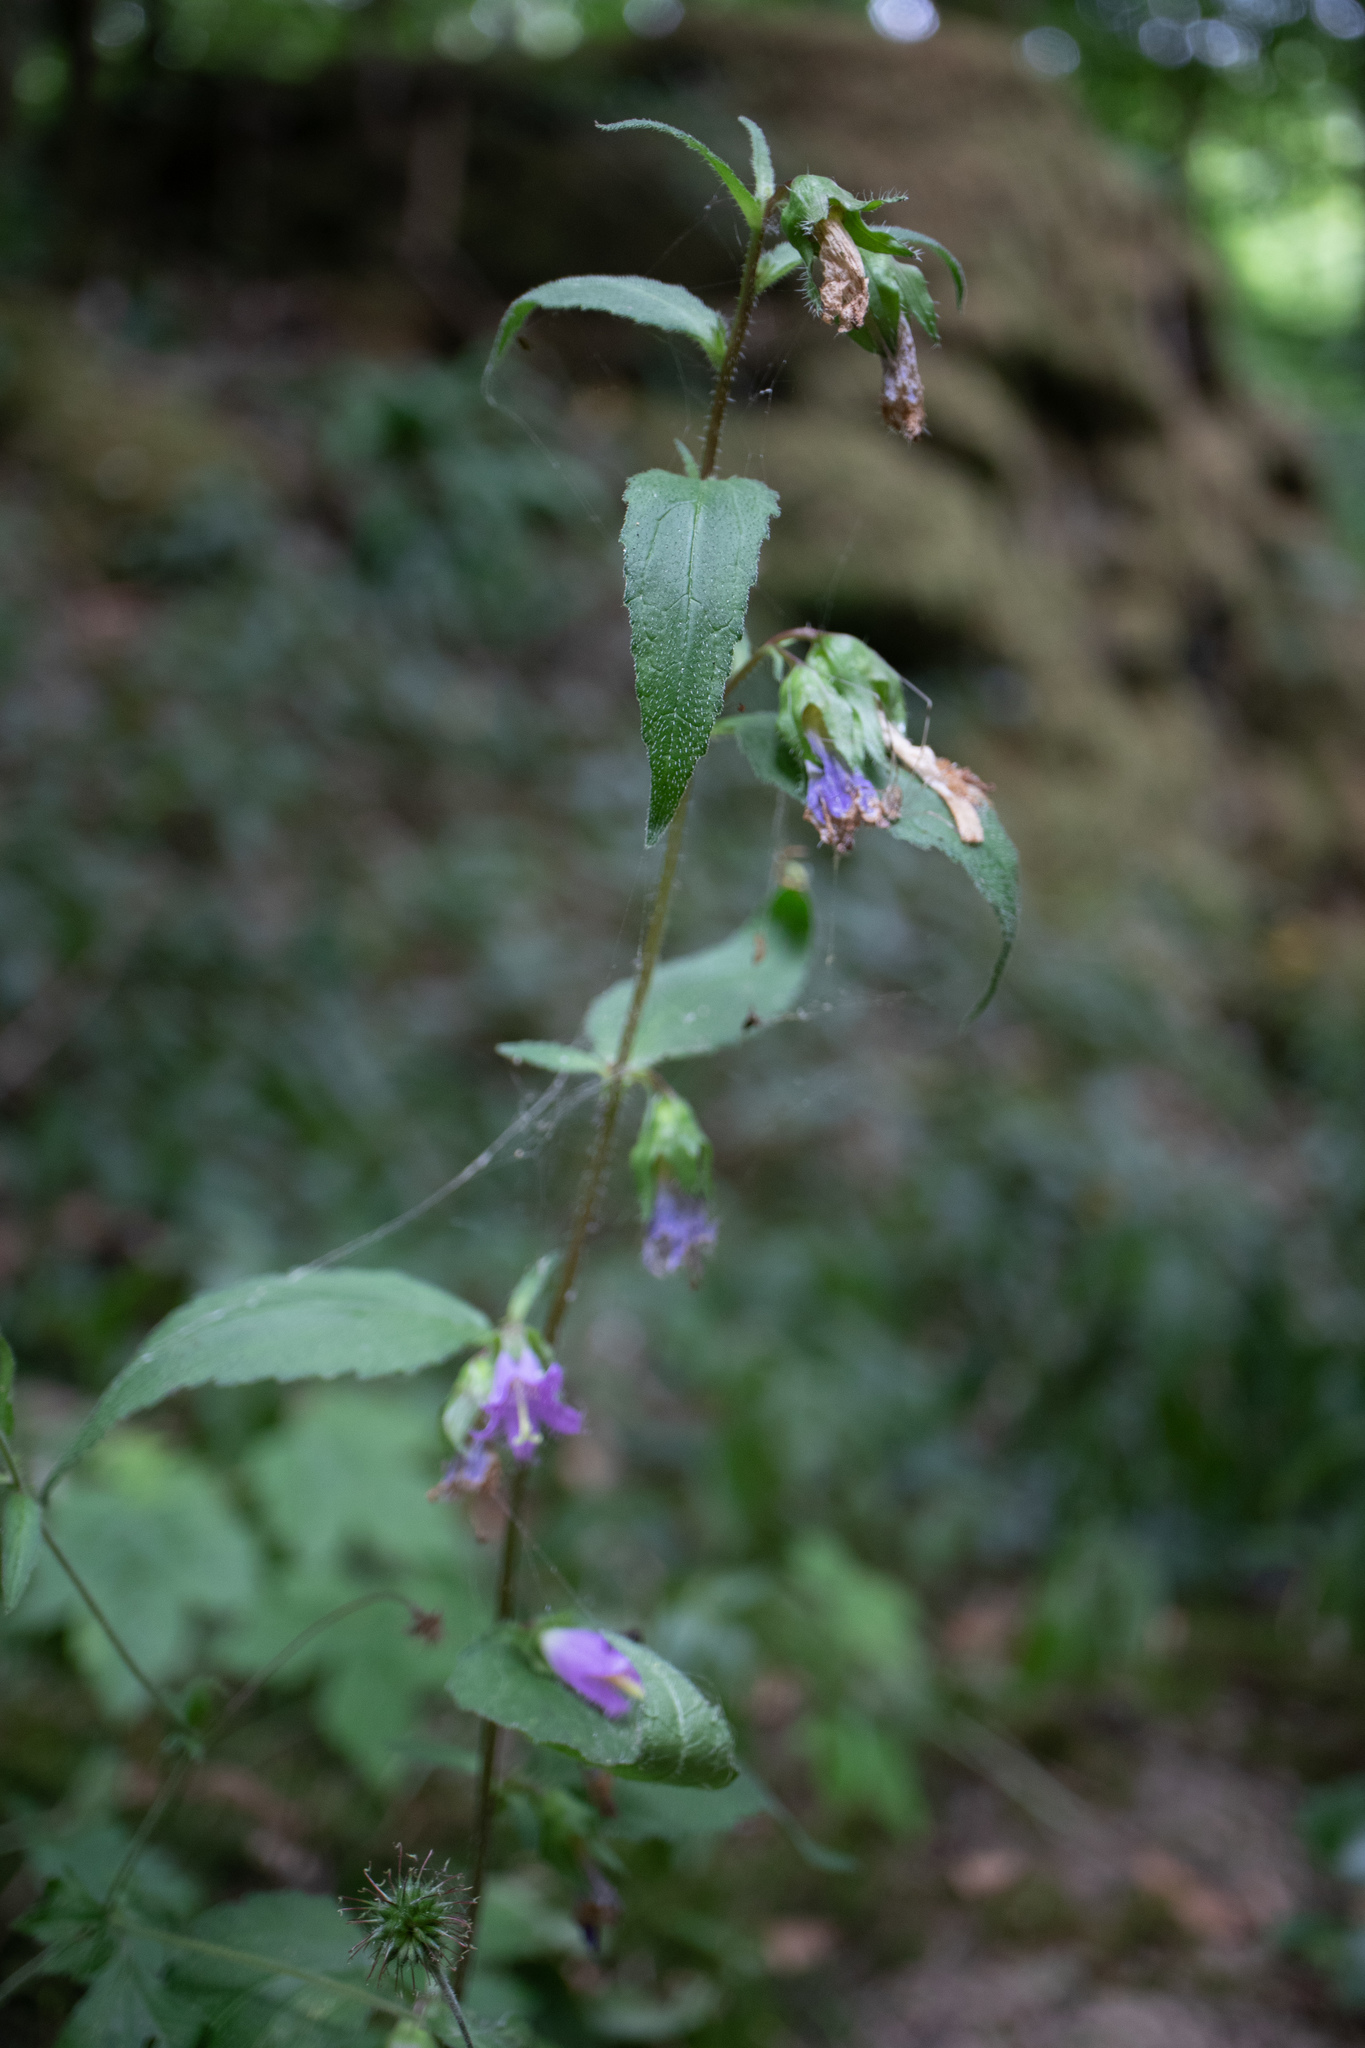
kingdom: Plantae
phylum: Tracheophyta
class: Magnoliopsida
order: Asterales
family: Campanulaceae
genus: Campanula
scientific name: Campanula trachelium
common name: Nettle-leaved bellflower
